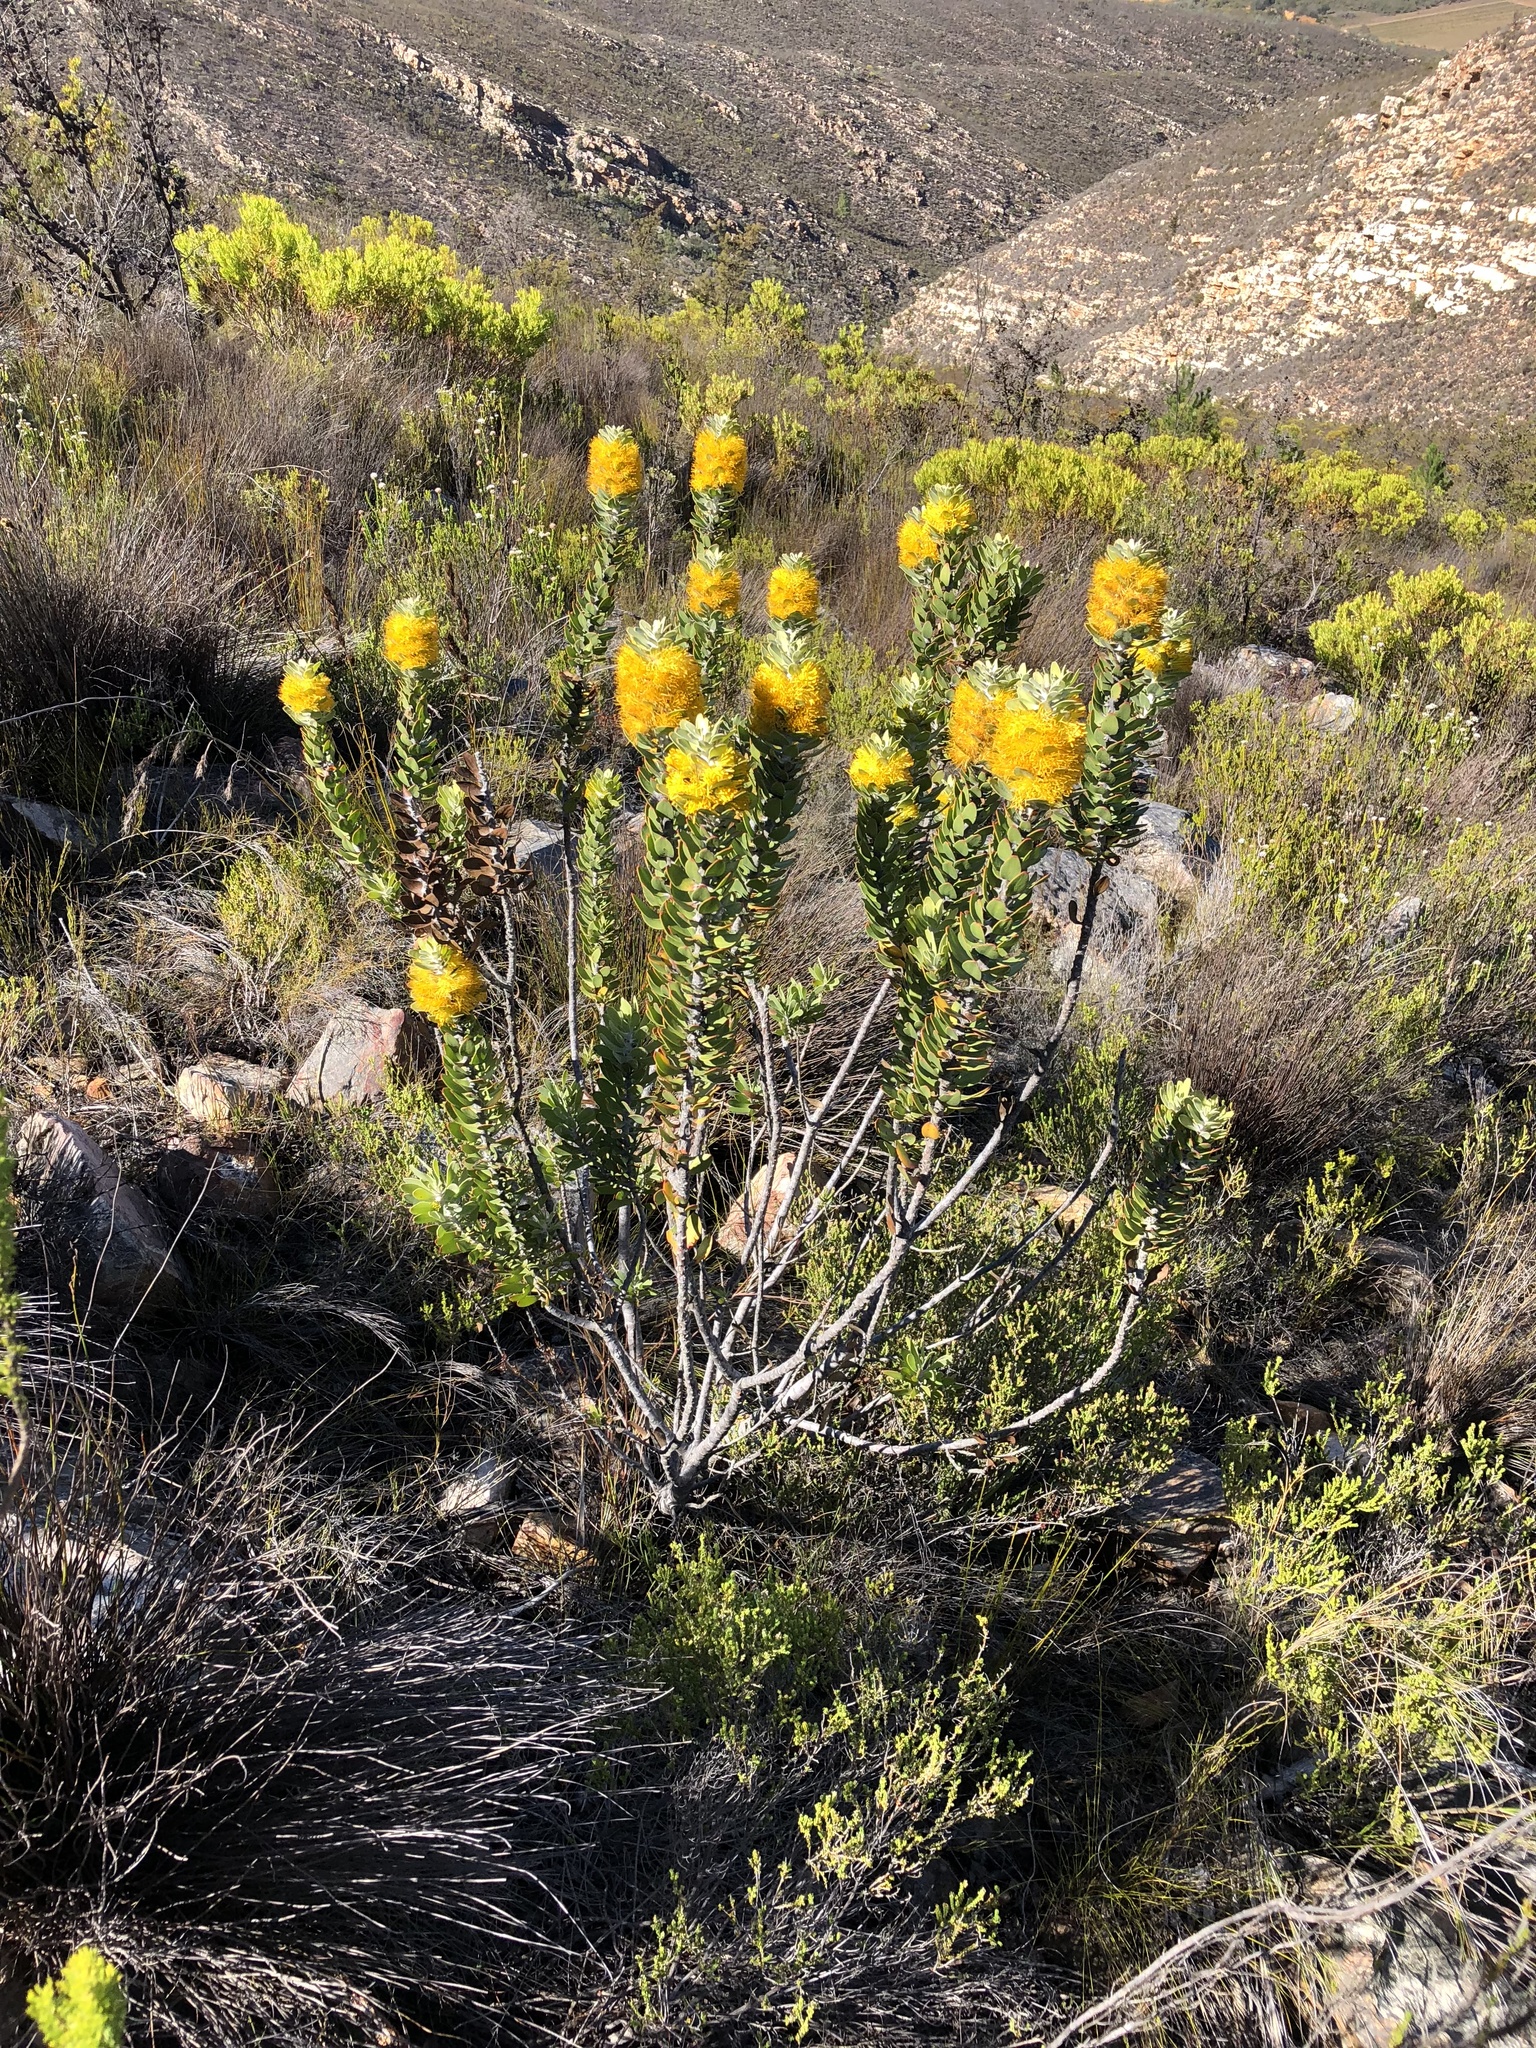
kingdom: Plantae
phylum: Tracheophyta
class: Magnoliopsida
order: Proteales
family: Proteaceae
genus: Mimetes
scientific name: Mimetes chrysanthus
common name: Golden pagoda
